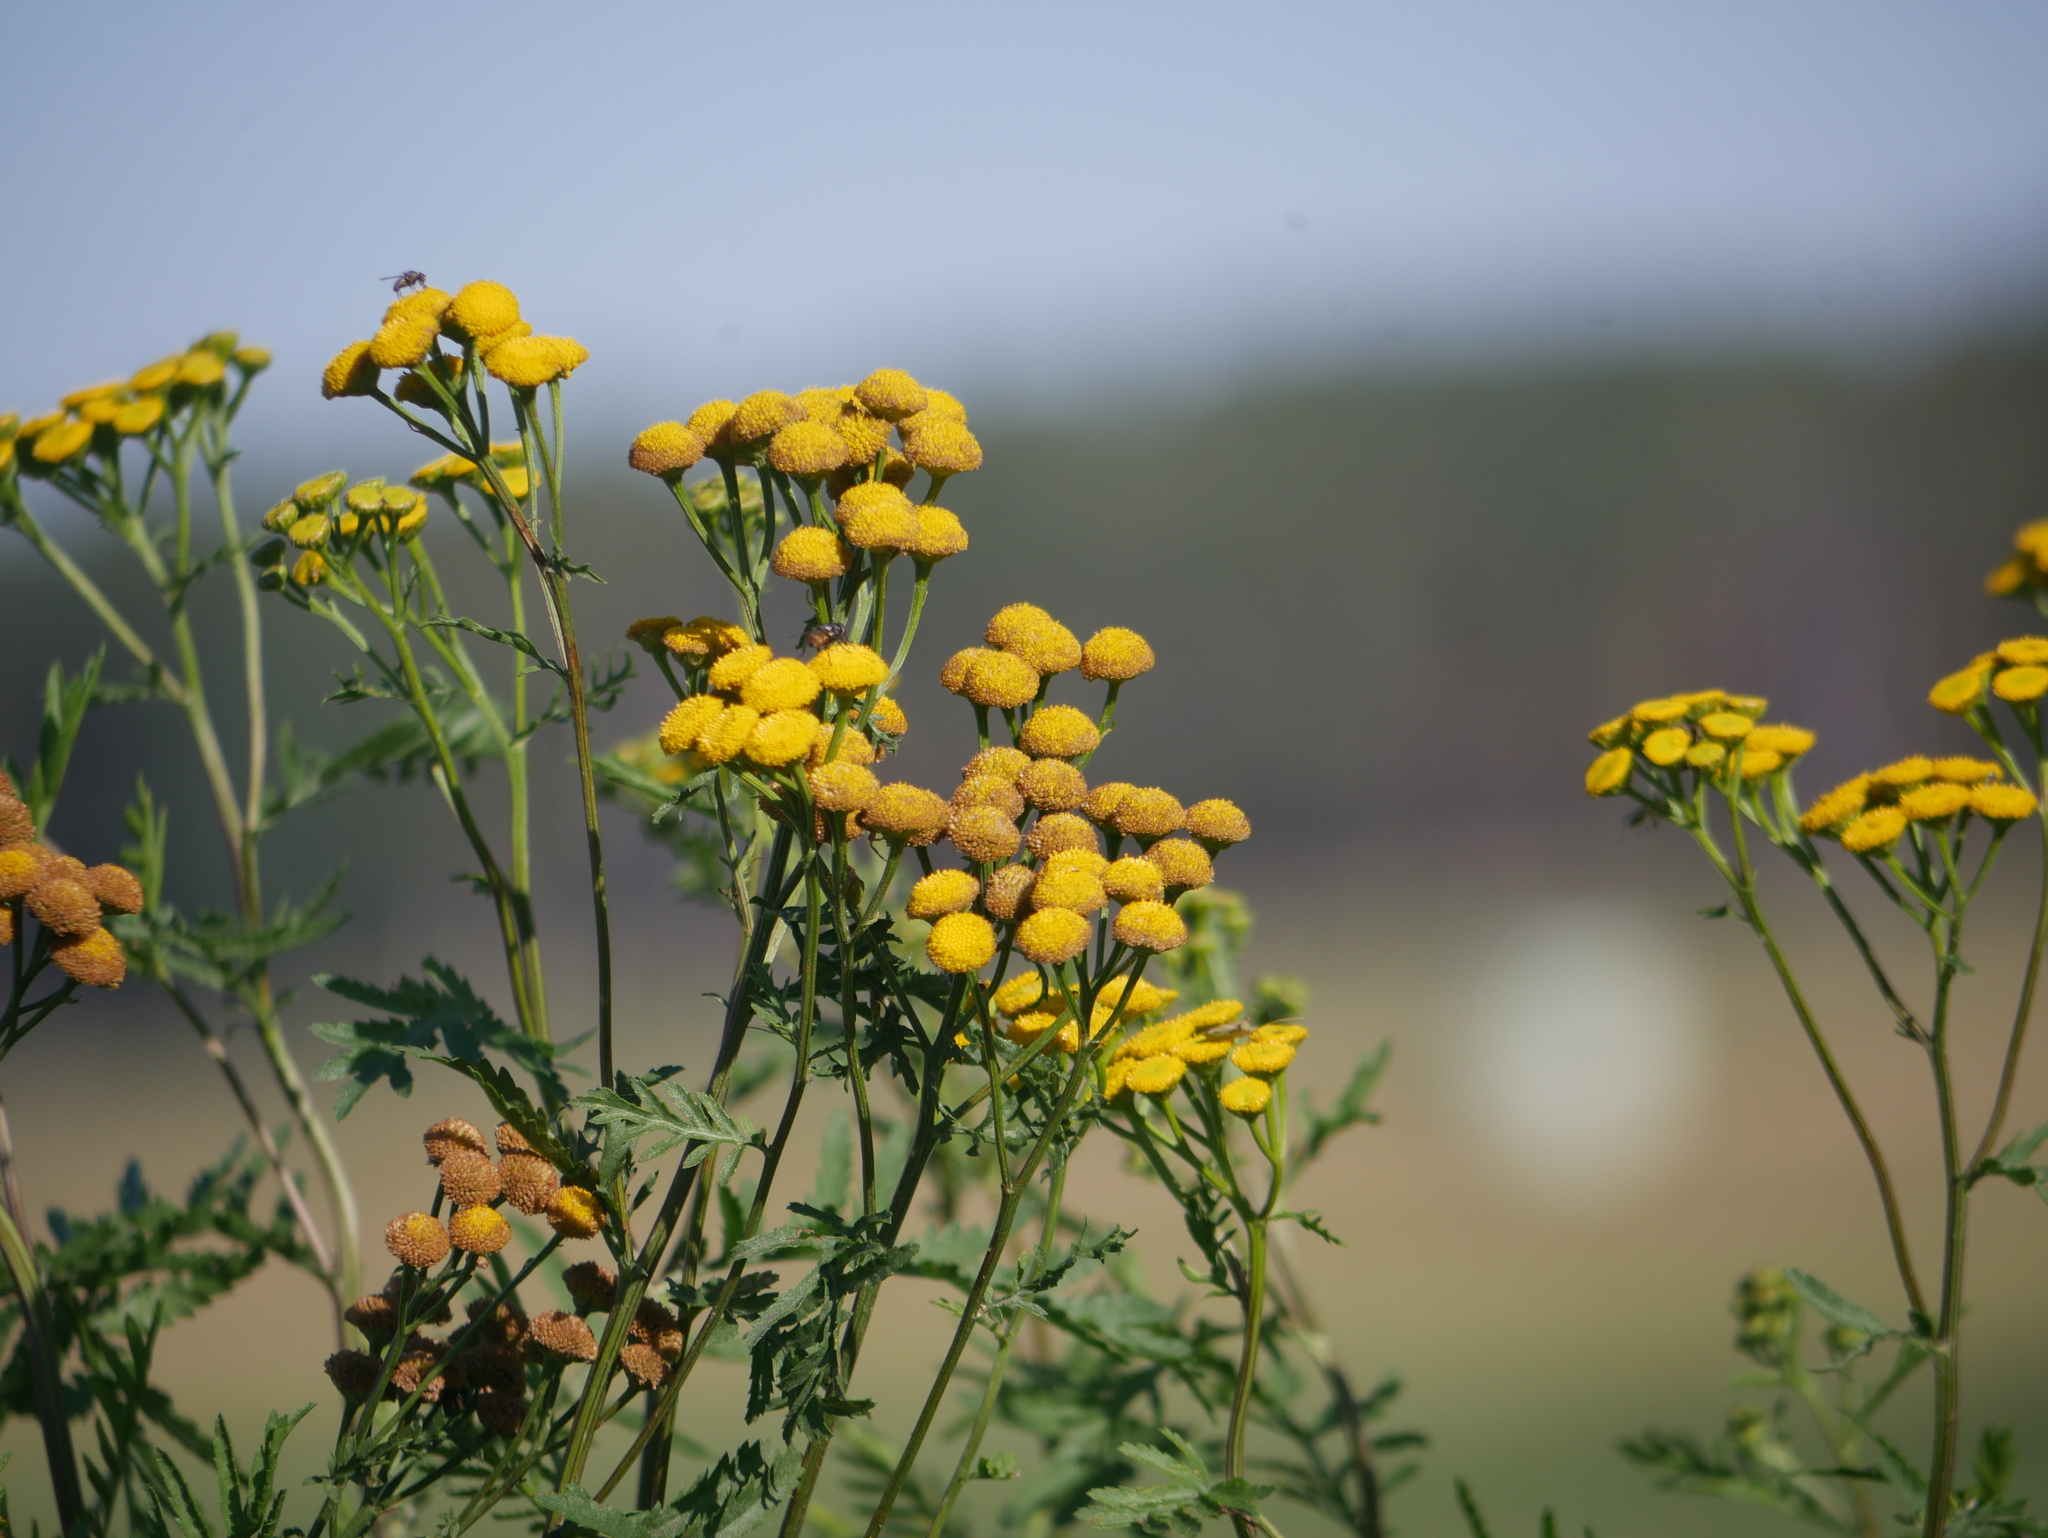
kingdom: Plantae
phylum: Tracheophyta
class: Magnoliopsida
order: Asterales
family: Asteraceae
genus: Tanacetum
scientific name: Tanacetum vulgare
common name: Common tansy
